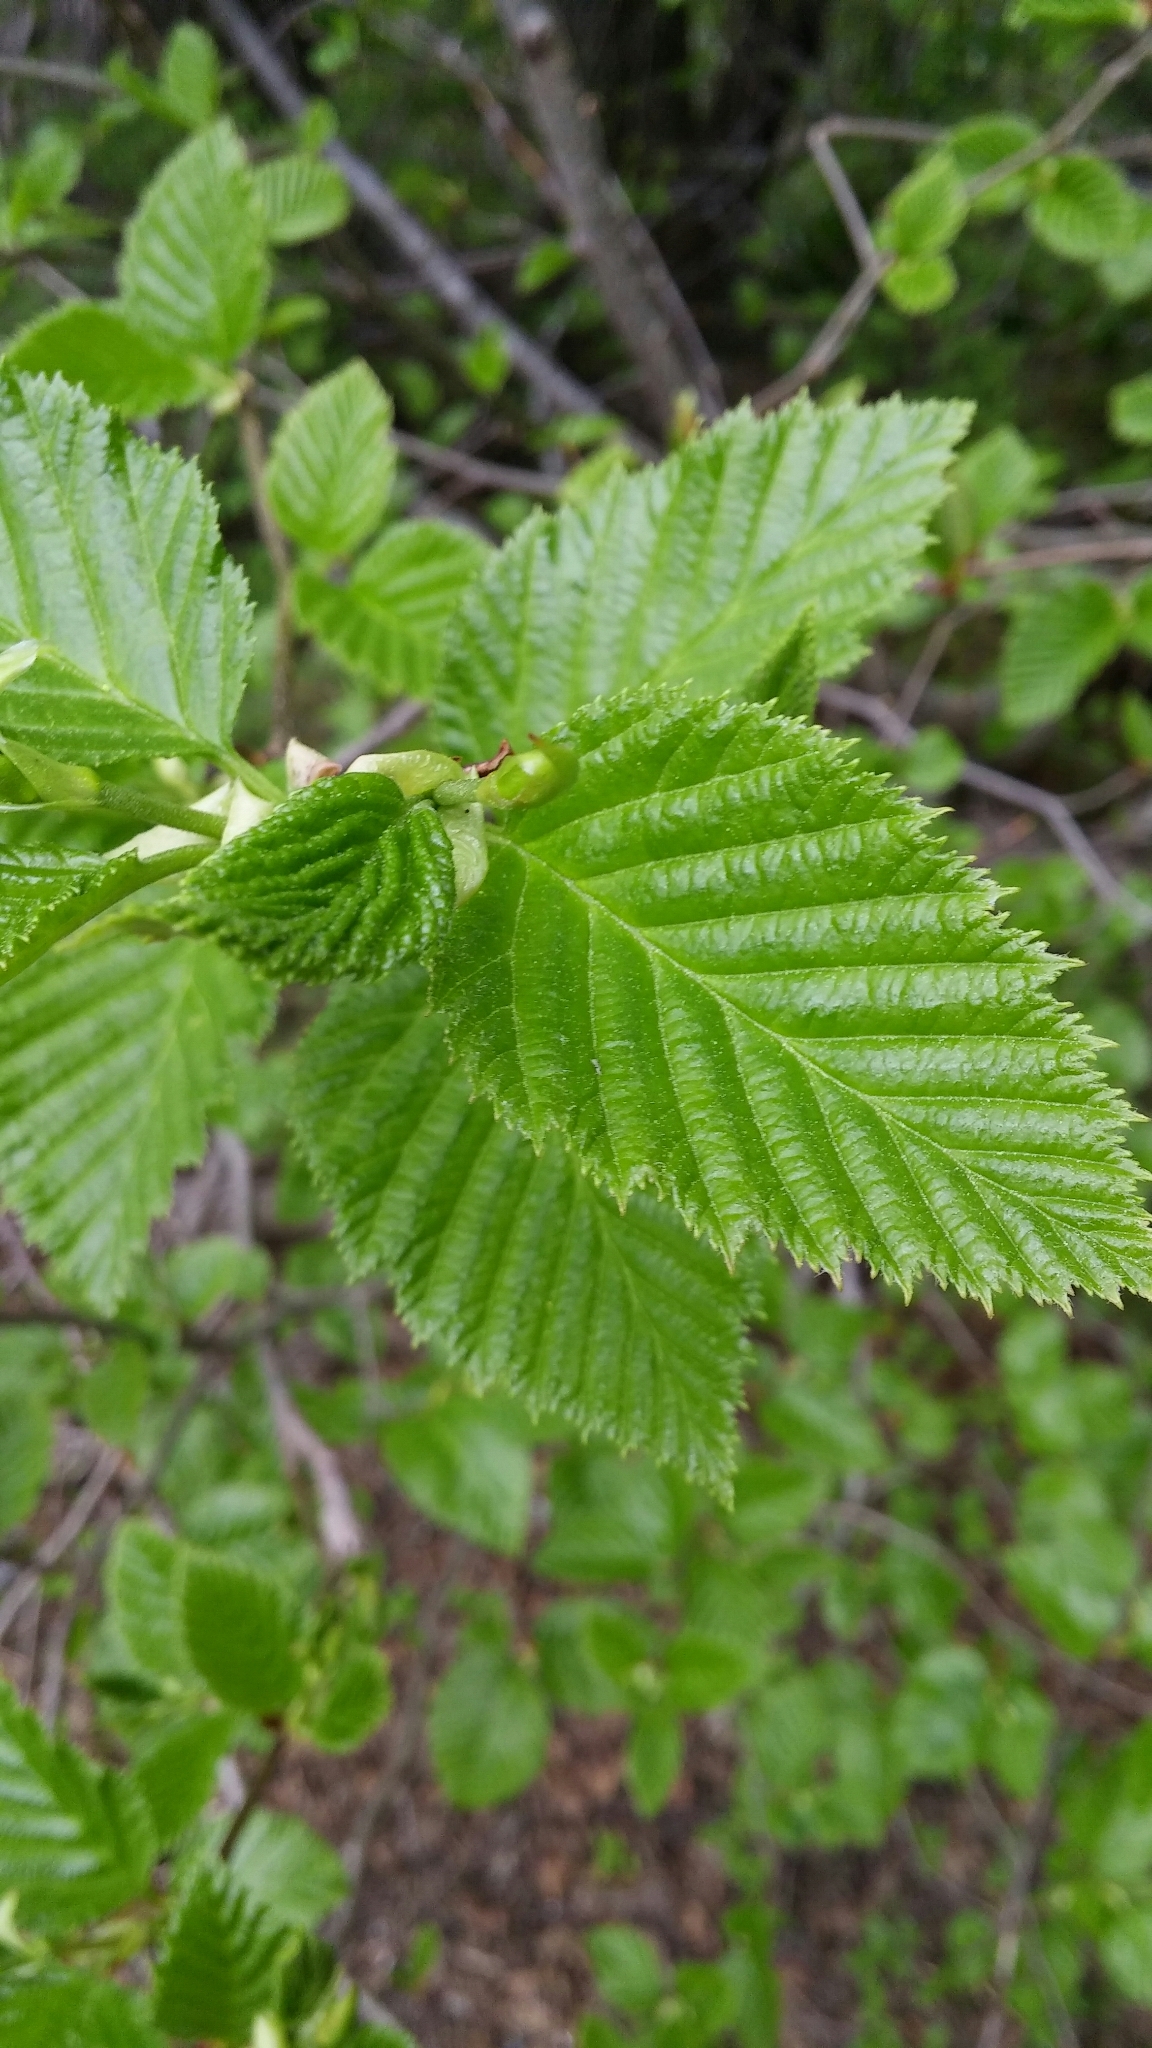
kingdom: Plantae
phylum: Tracheophyta
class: Magnoliopsida
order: Fagales
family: Betulaceae
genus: Alnus
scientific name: Alnus rubra
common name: Red alder
